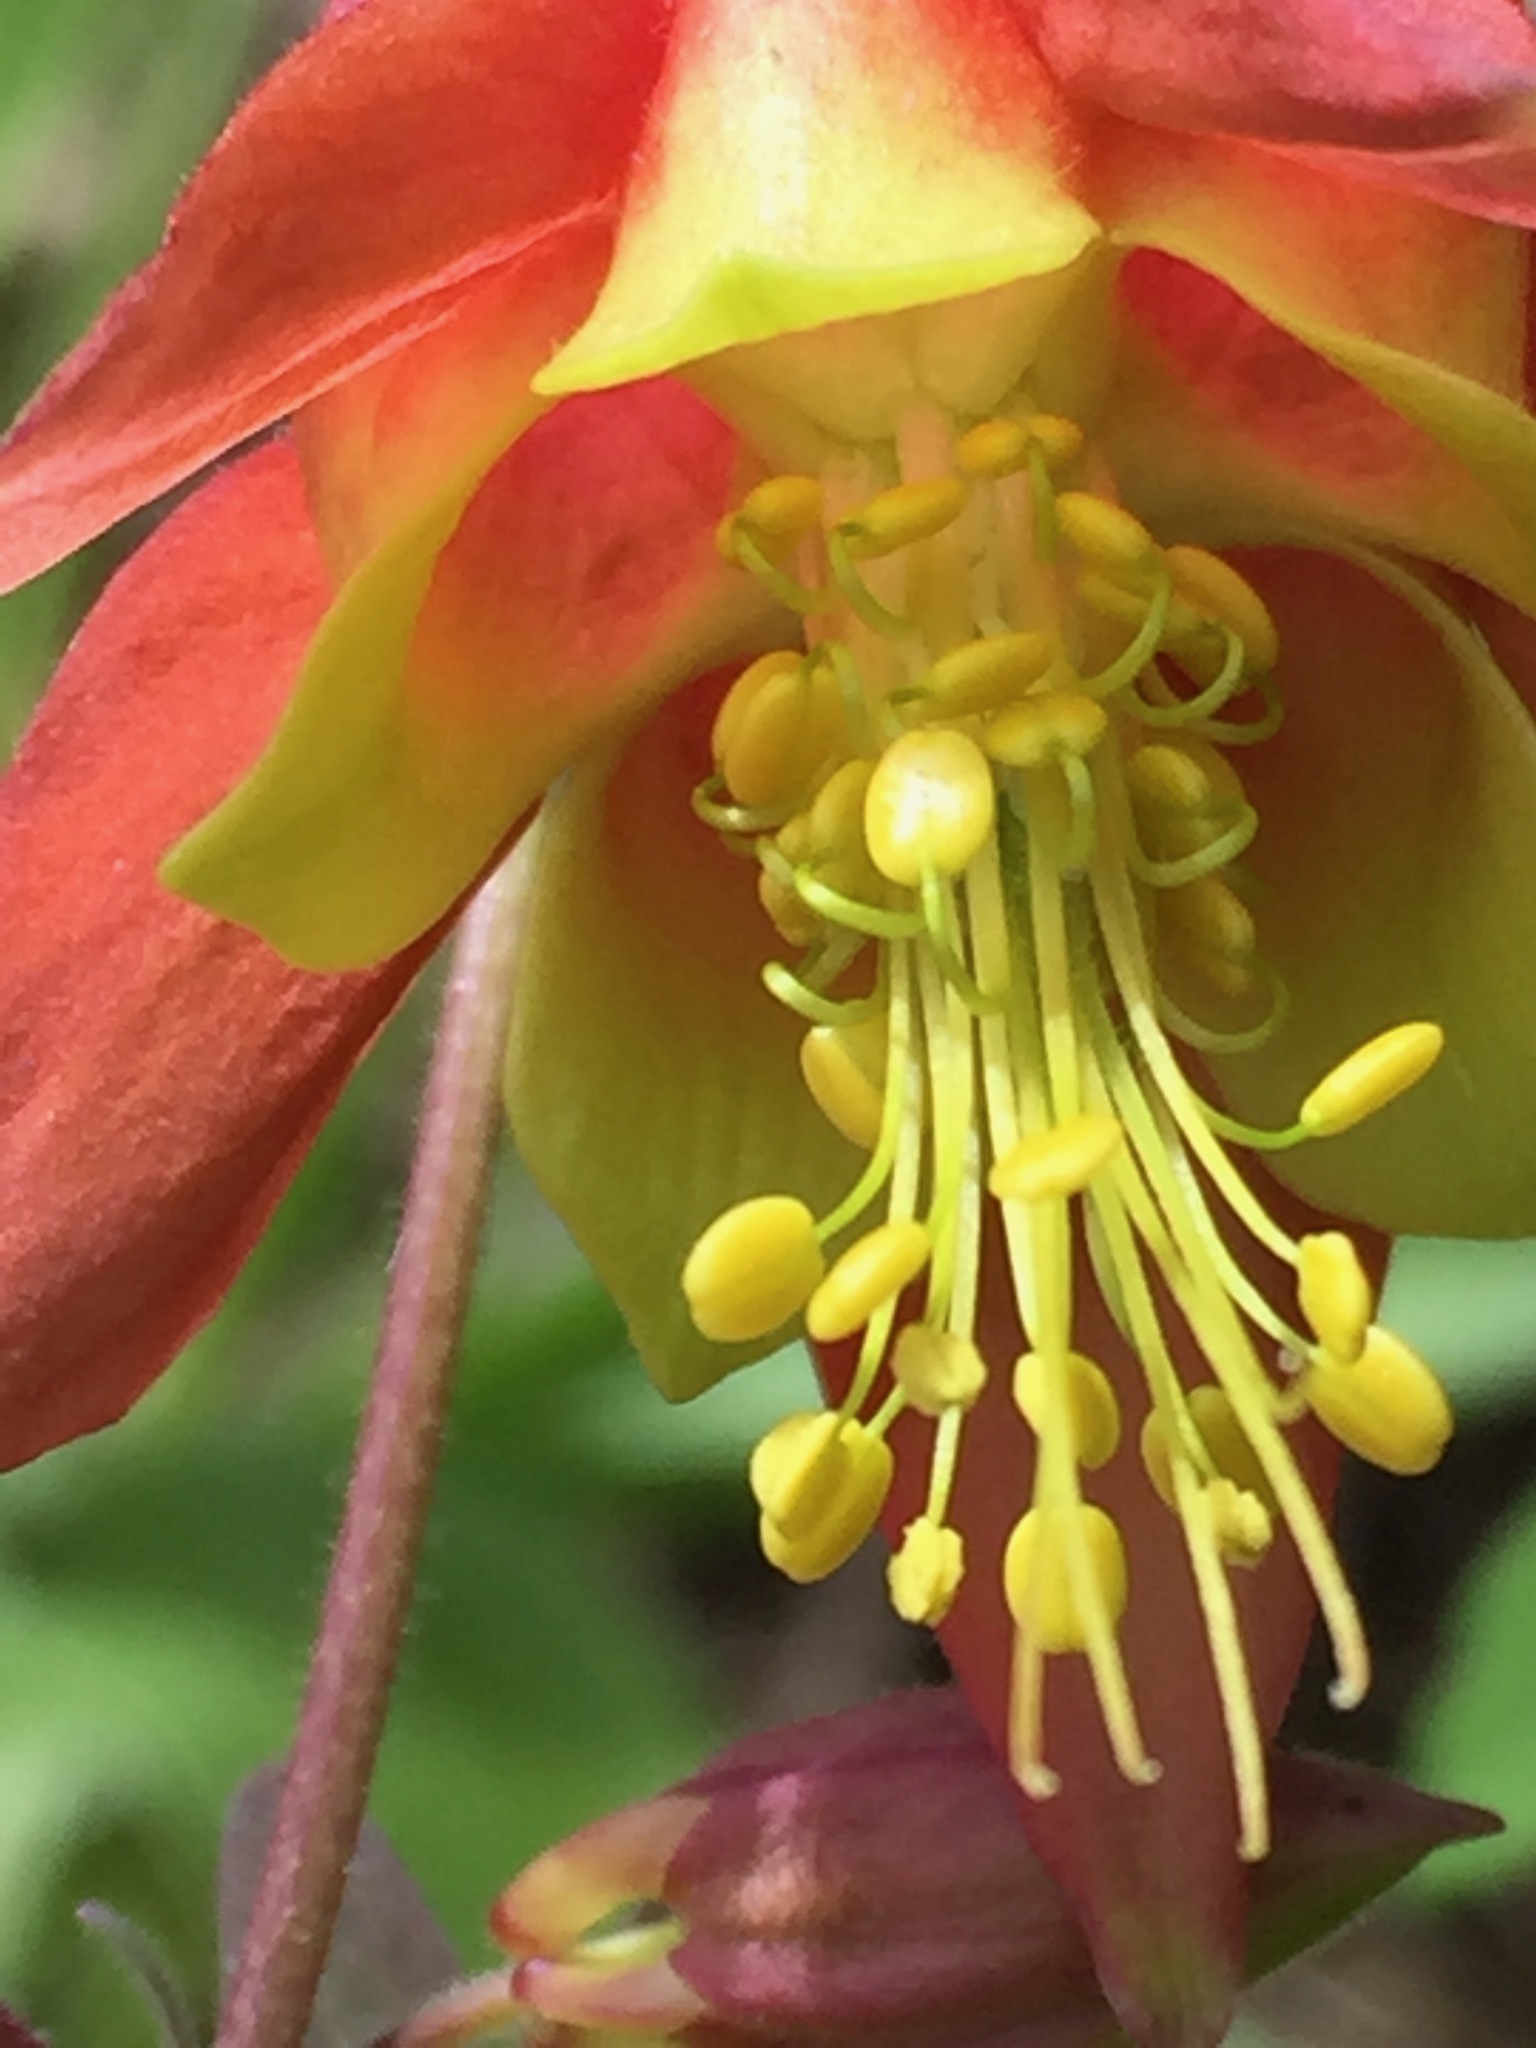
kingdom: Plantae
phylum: Tracheophyta
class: Magnoliopsida
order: Ranunculales
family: Ranunculaceae
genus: Aquilegia
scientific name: Aquilegia canadensis
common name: American columbine
